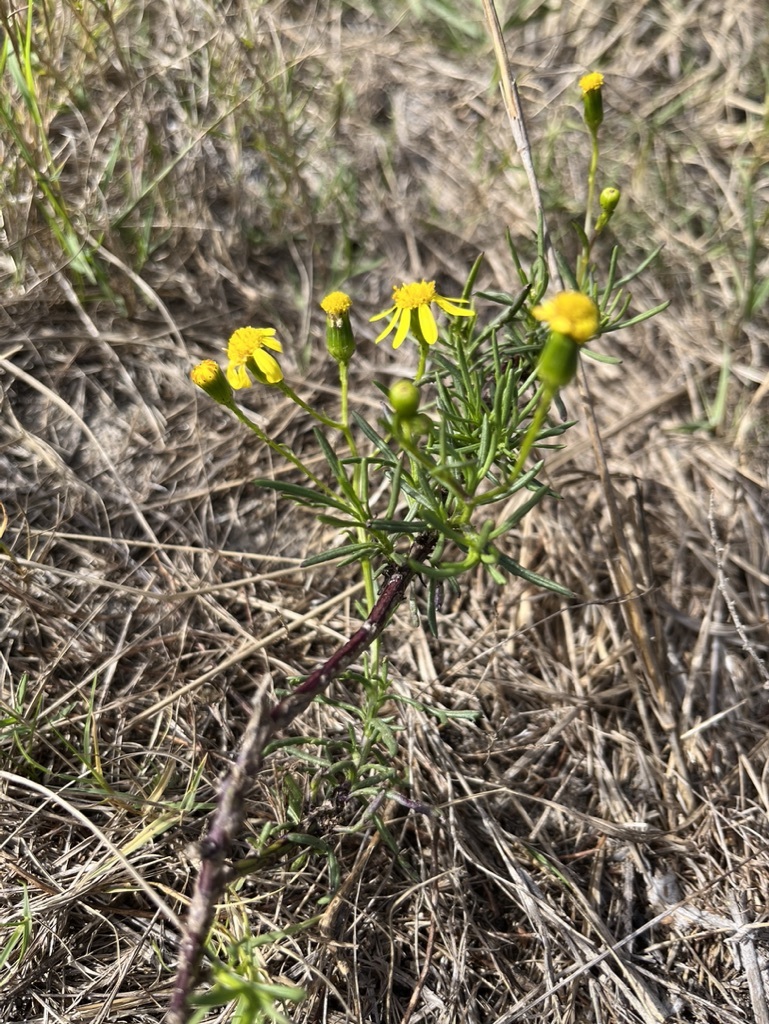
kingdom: Plantae
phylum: Tracheophyta
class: Magnoliopsida
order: Asterales
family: Asteraceae
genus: Senecio
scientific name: Senecio burchellii
